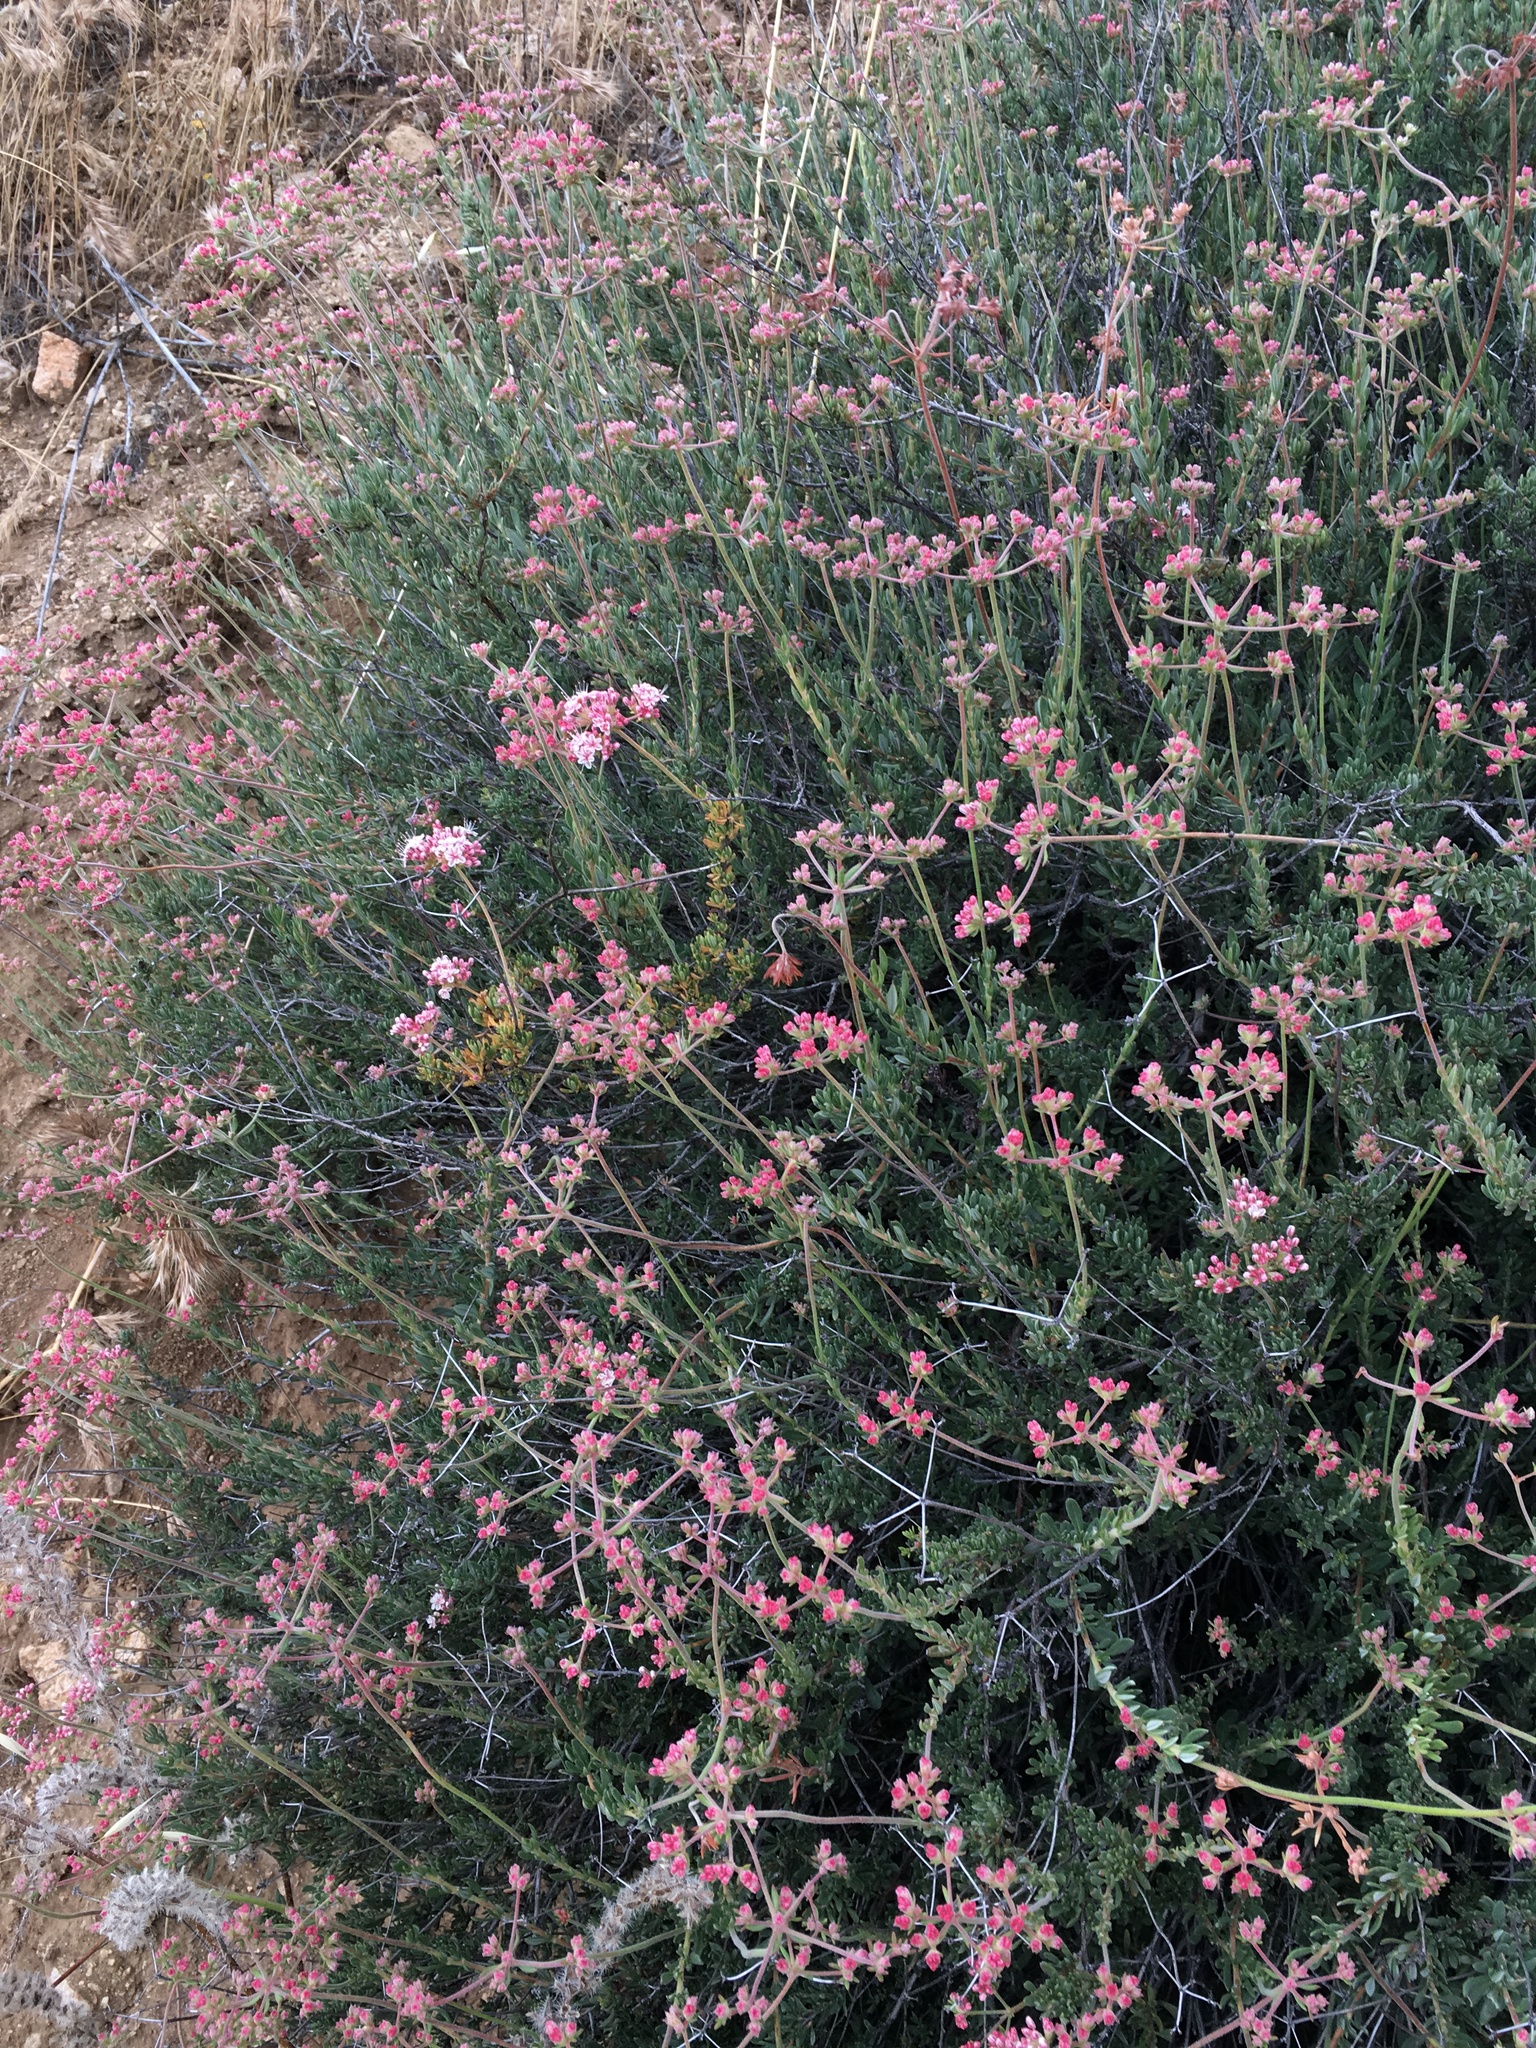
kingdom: Plantae
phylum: Tracheophyta
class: Magnoliopsida
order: Caryophyllales
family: Polygonaceae
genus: Eriogonum
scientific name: Eriogonum fasciculatum
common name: California wild buckwheat
